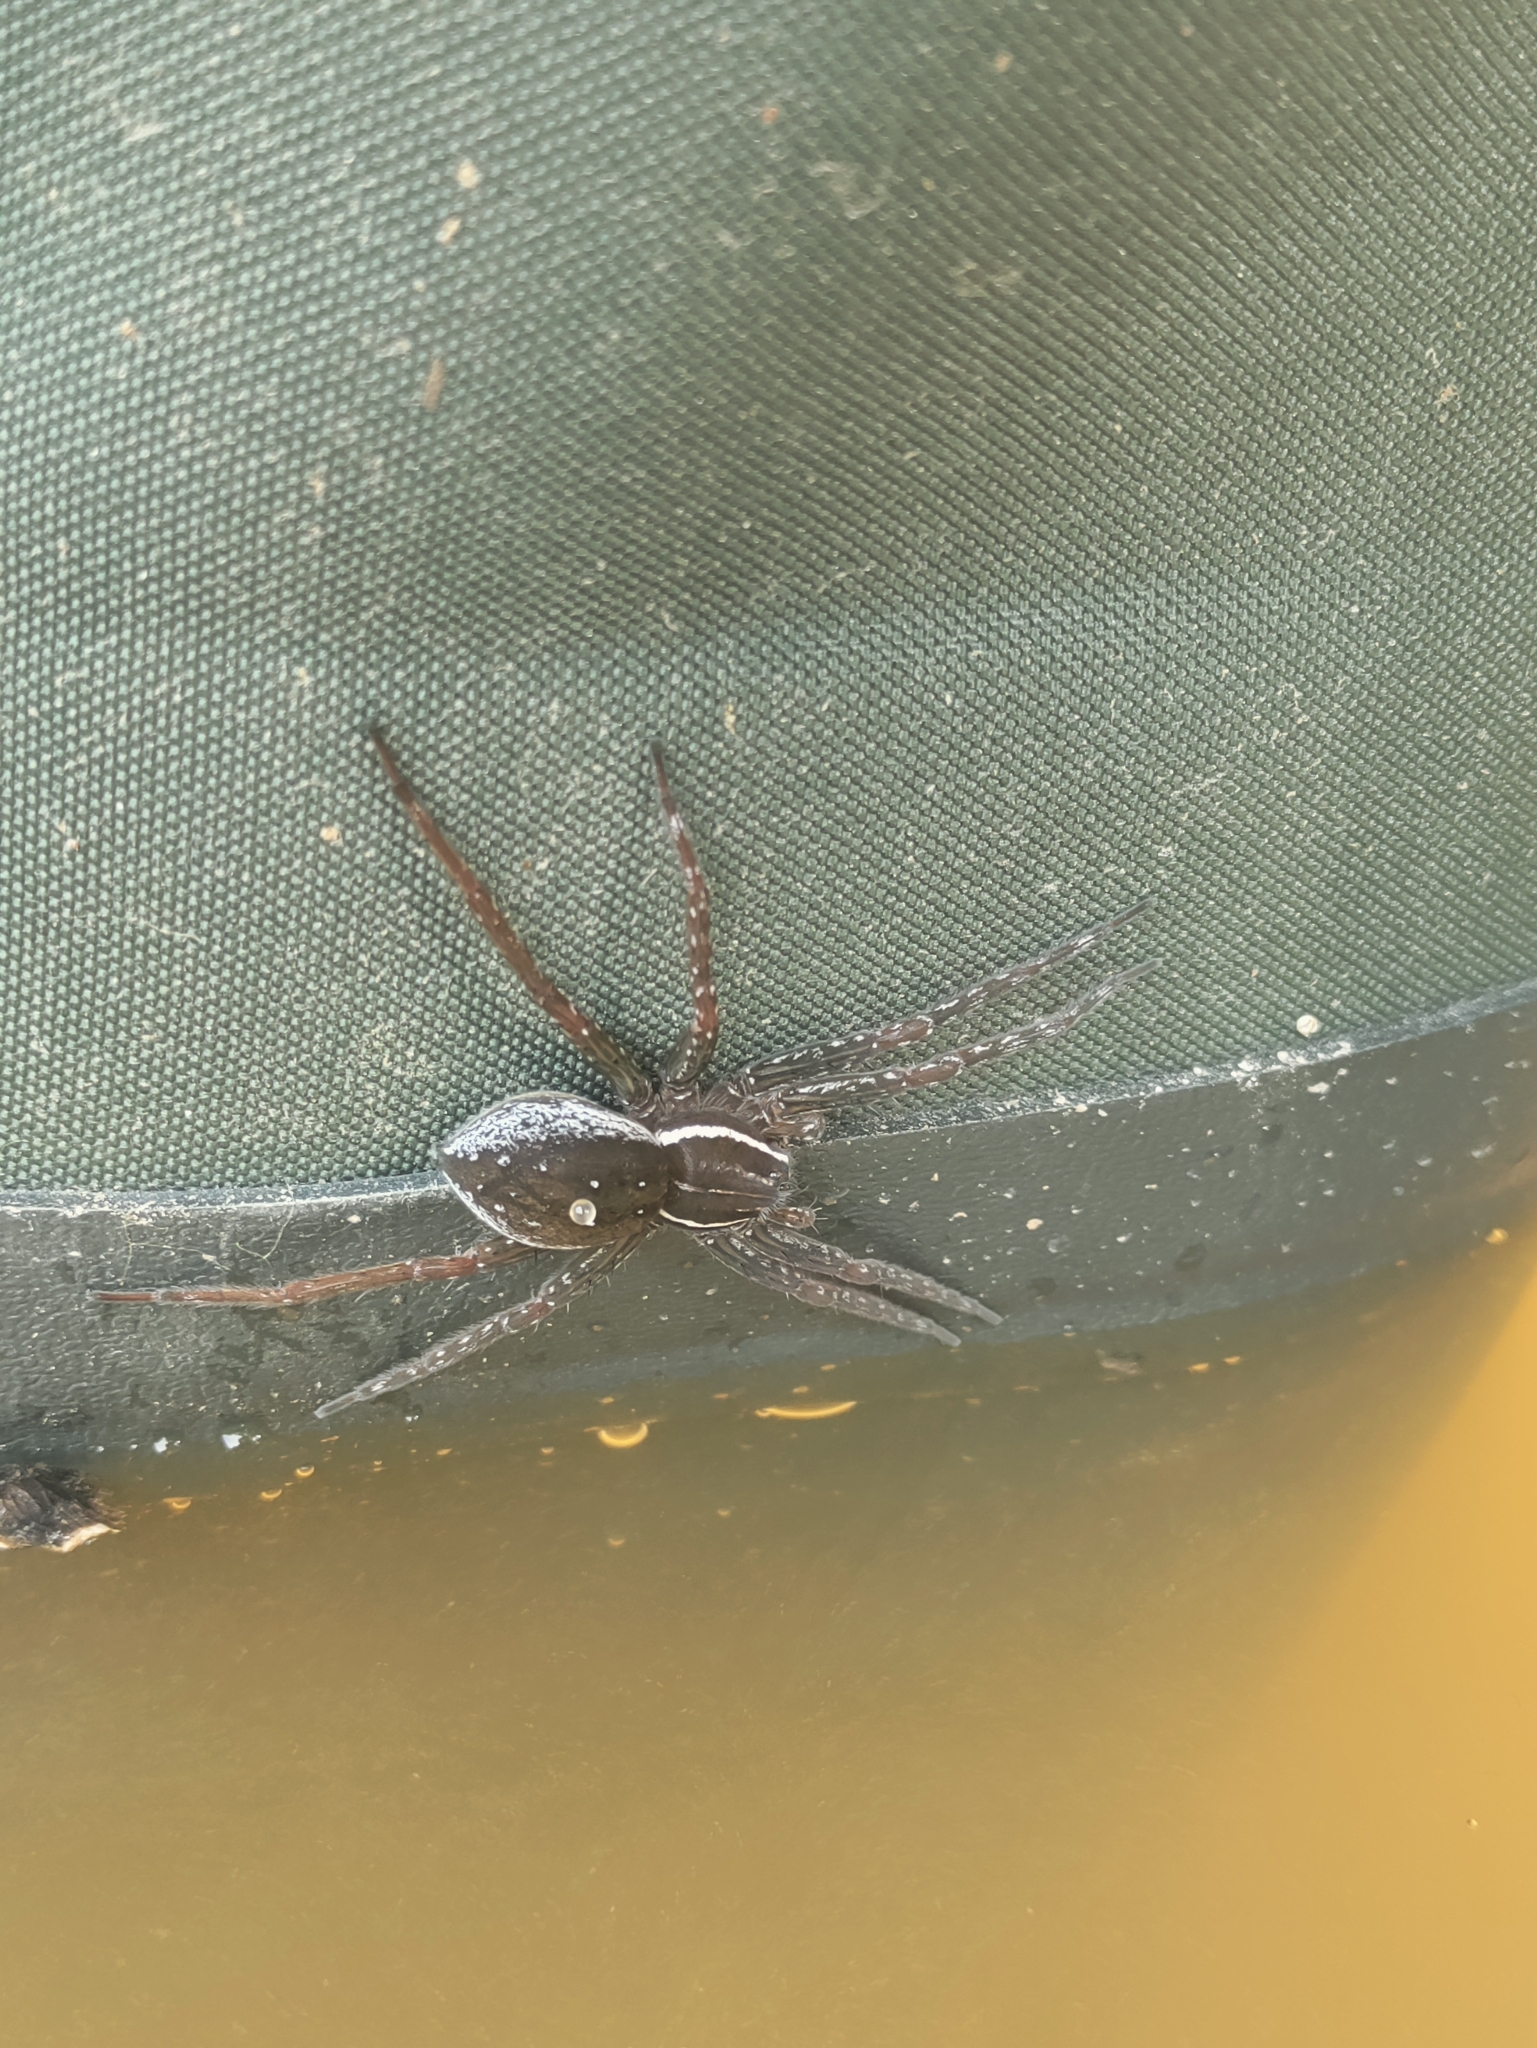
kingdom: Animalia
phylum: Arthropoda
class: Arachnida
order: Araneae
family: Pisauridae
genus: Dolomedes
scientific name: Dolomedes triton
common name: Six-spotted fishing spider
